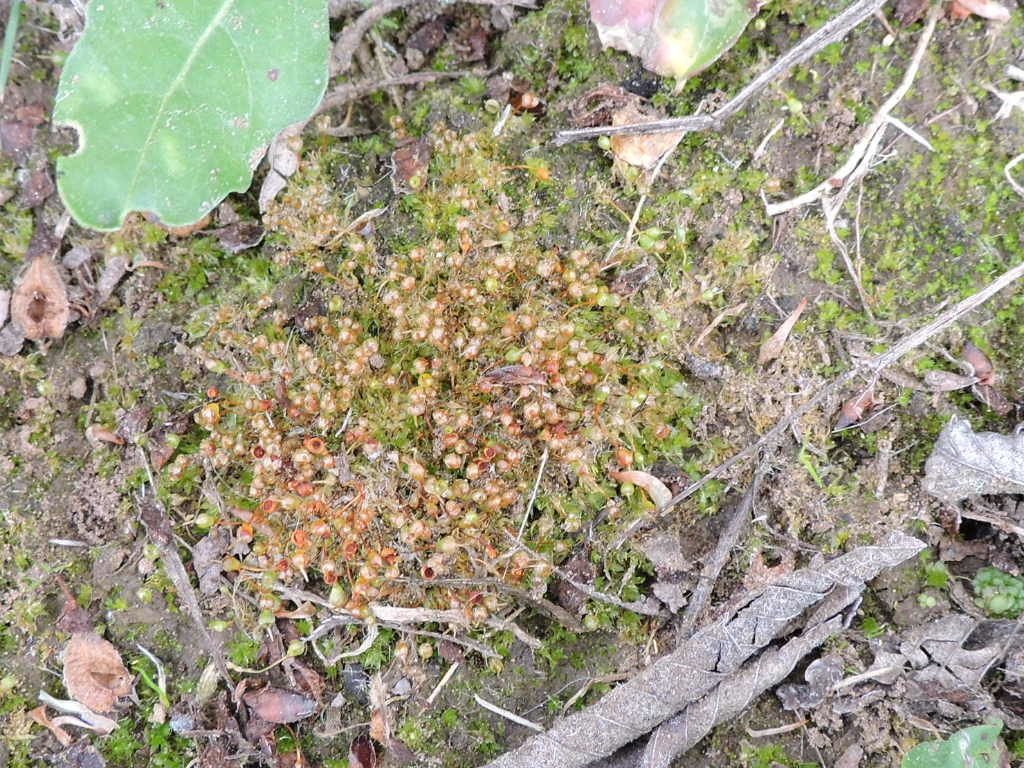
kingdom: Plantae
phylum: Bryophyta
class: Bryopsida
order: Funariales
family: Funariaceae
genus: Physcomitrium
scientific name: Physcomitrium pyriforme
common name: Common bladder-moss
